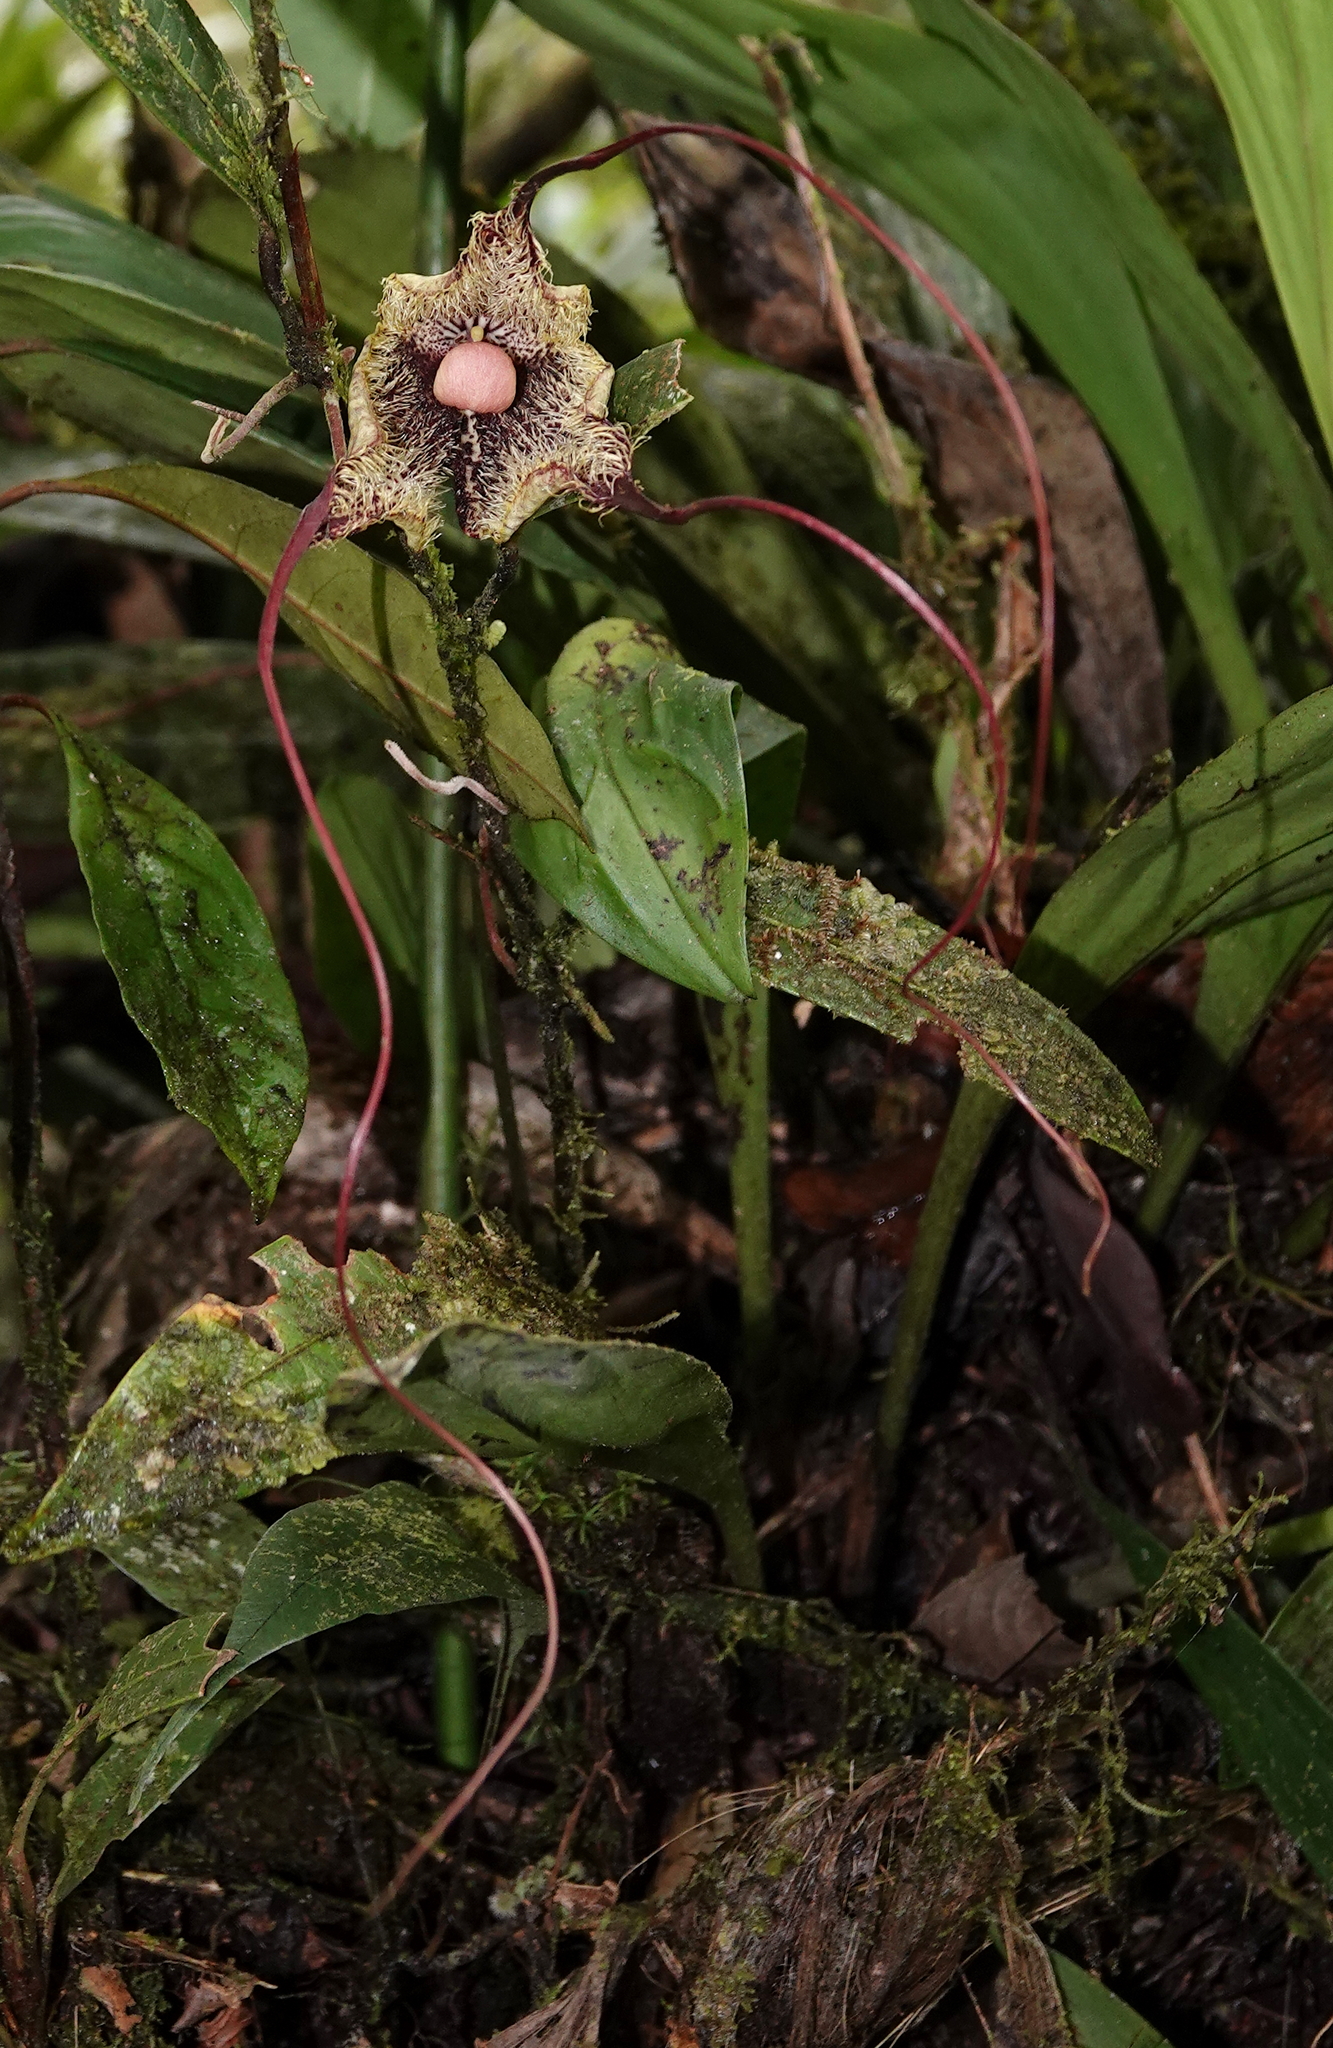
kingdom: Plantae
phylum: Tracheophyta
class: Liliopsida
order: Asparagales
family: Orchidaceae
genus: Dracula
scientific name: Dracula chimaera
